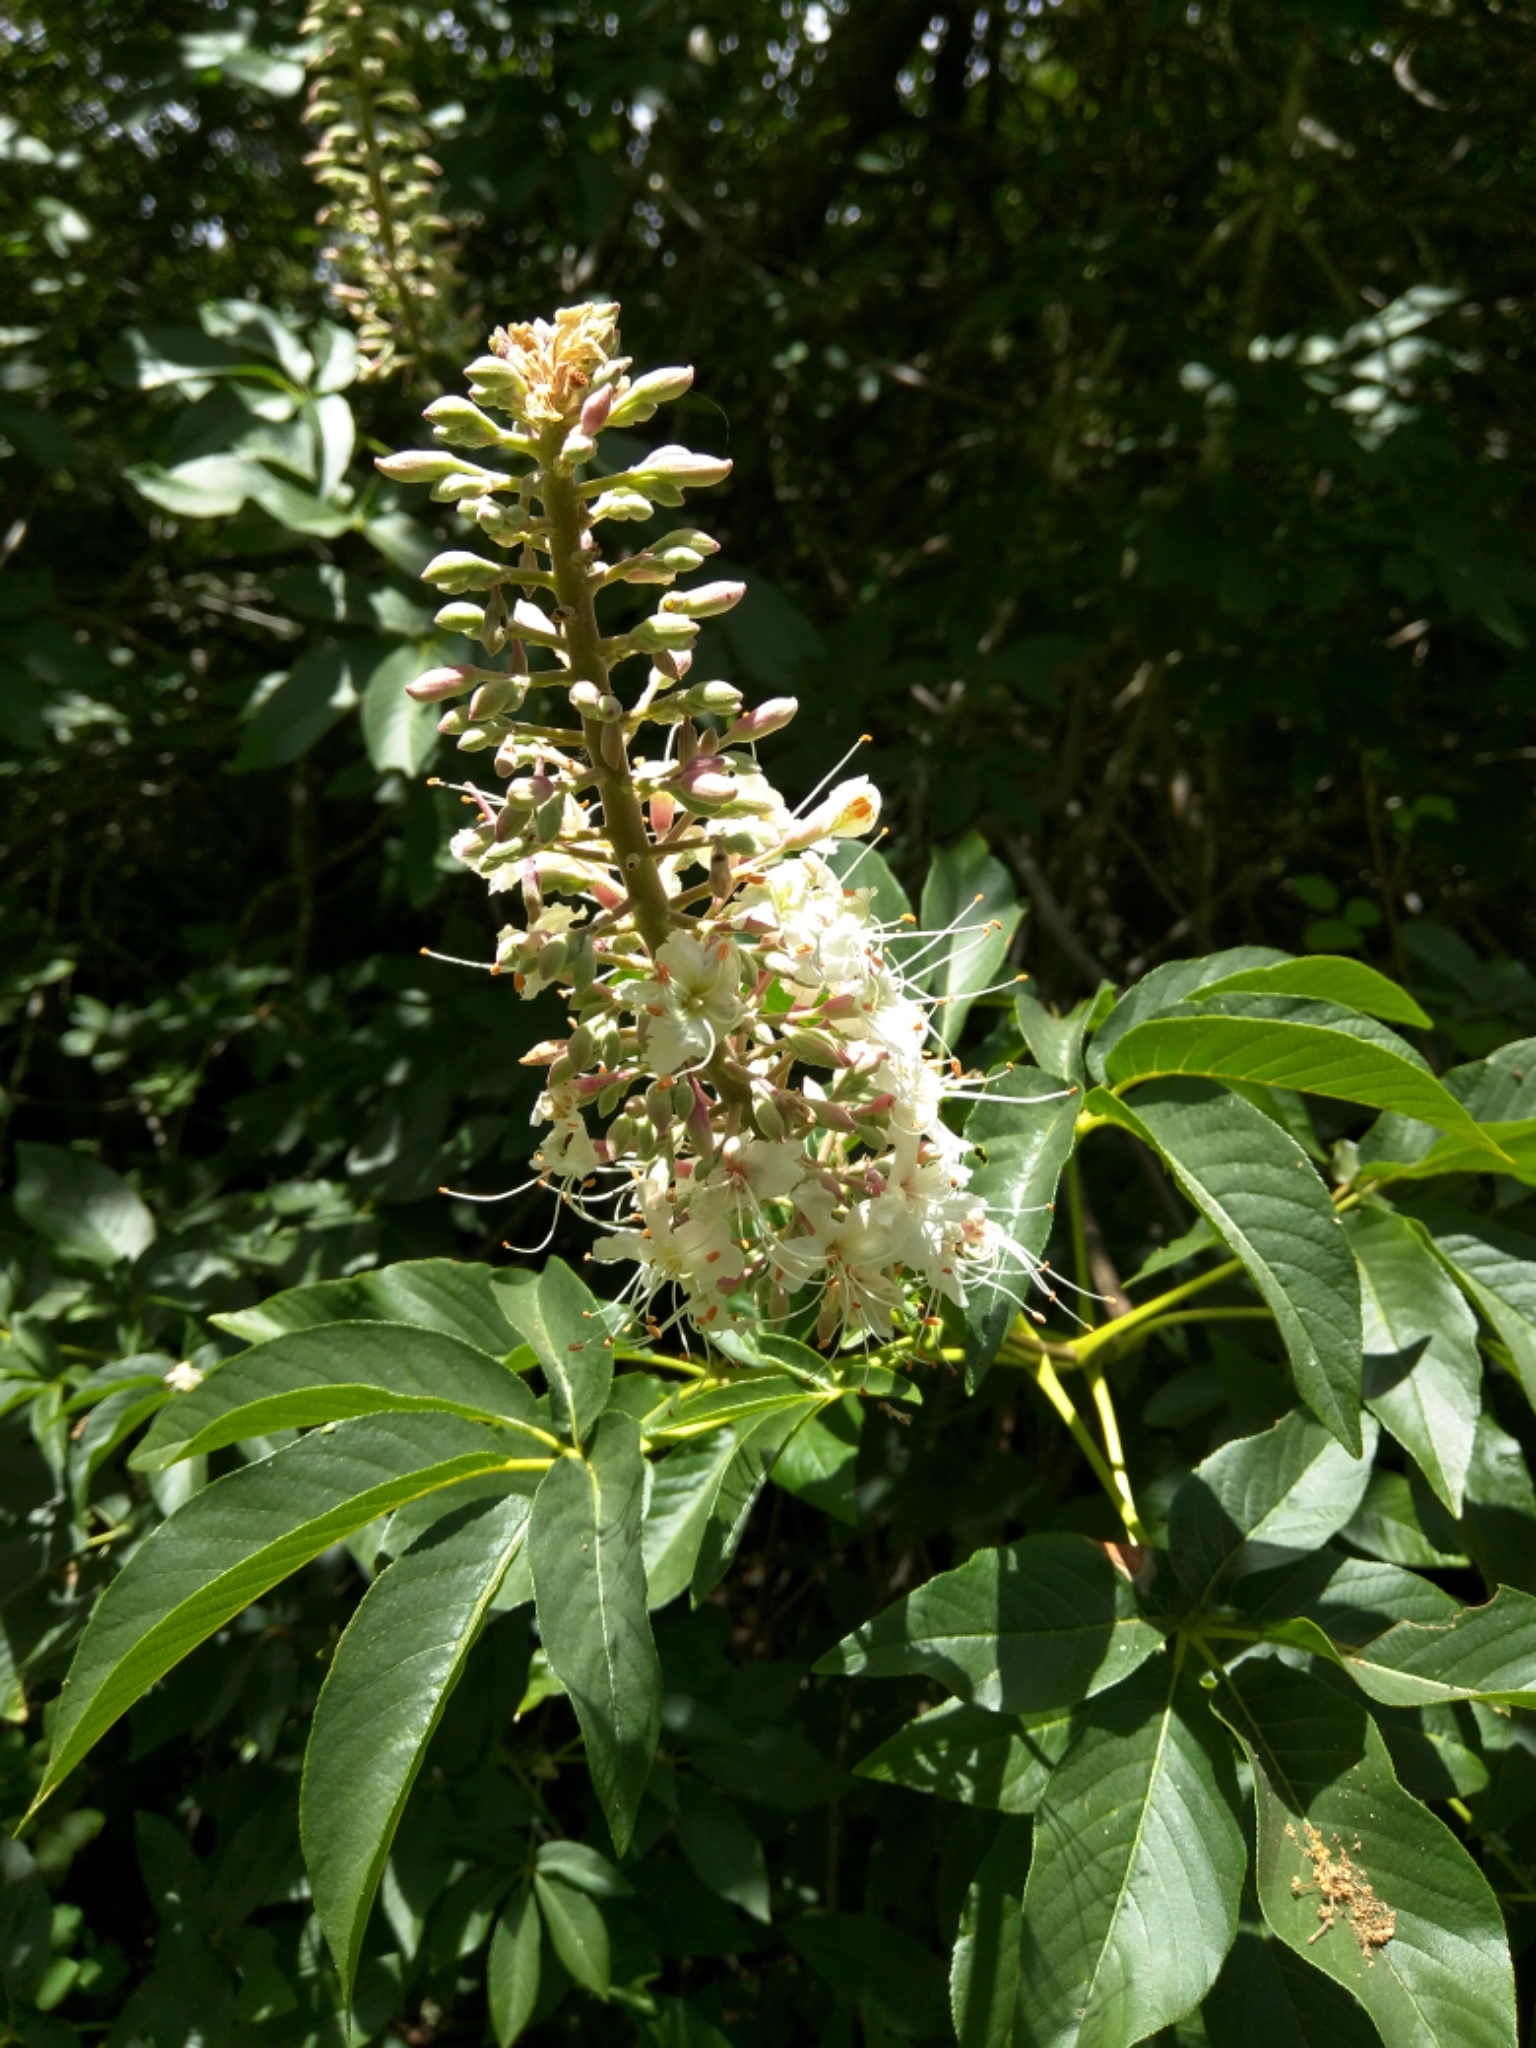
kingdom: Plantae
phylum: Tracheophyta
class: Magnoliopsida
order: Sapindales
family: Sapindaceae
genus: Aesculus
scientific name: Aesculus californica
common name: California buckeye
